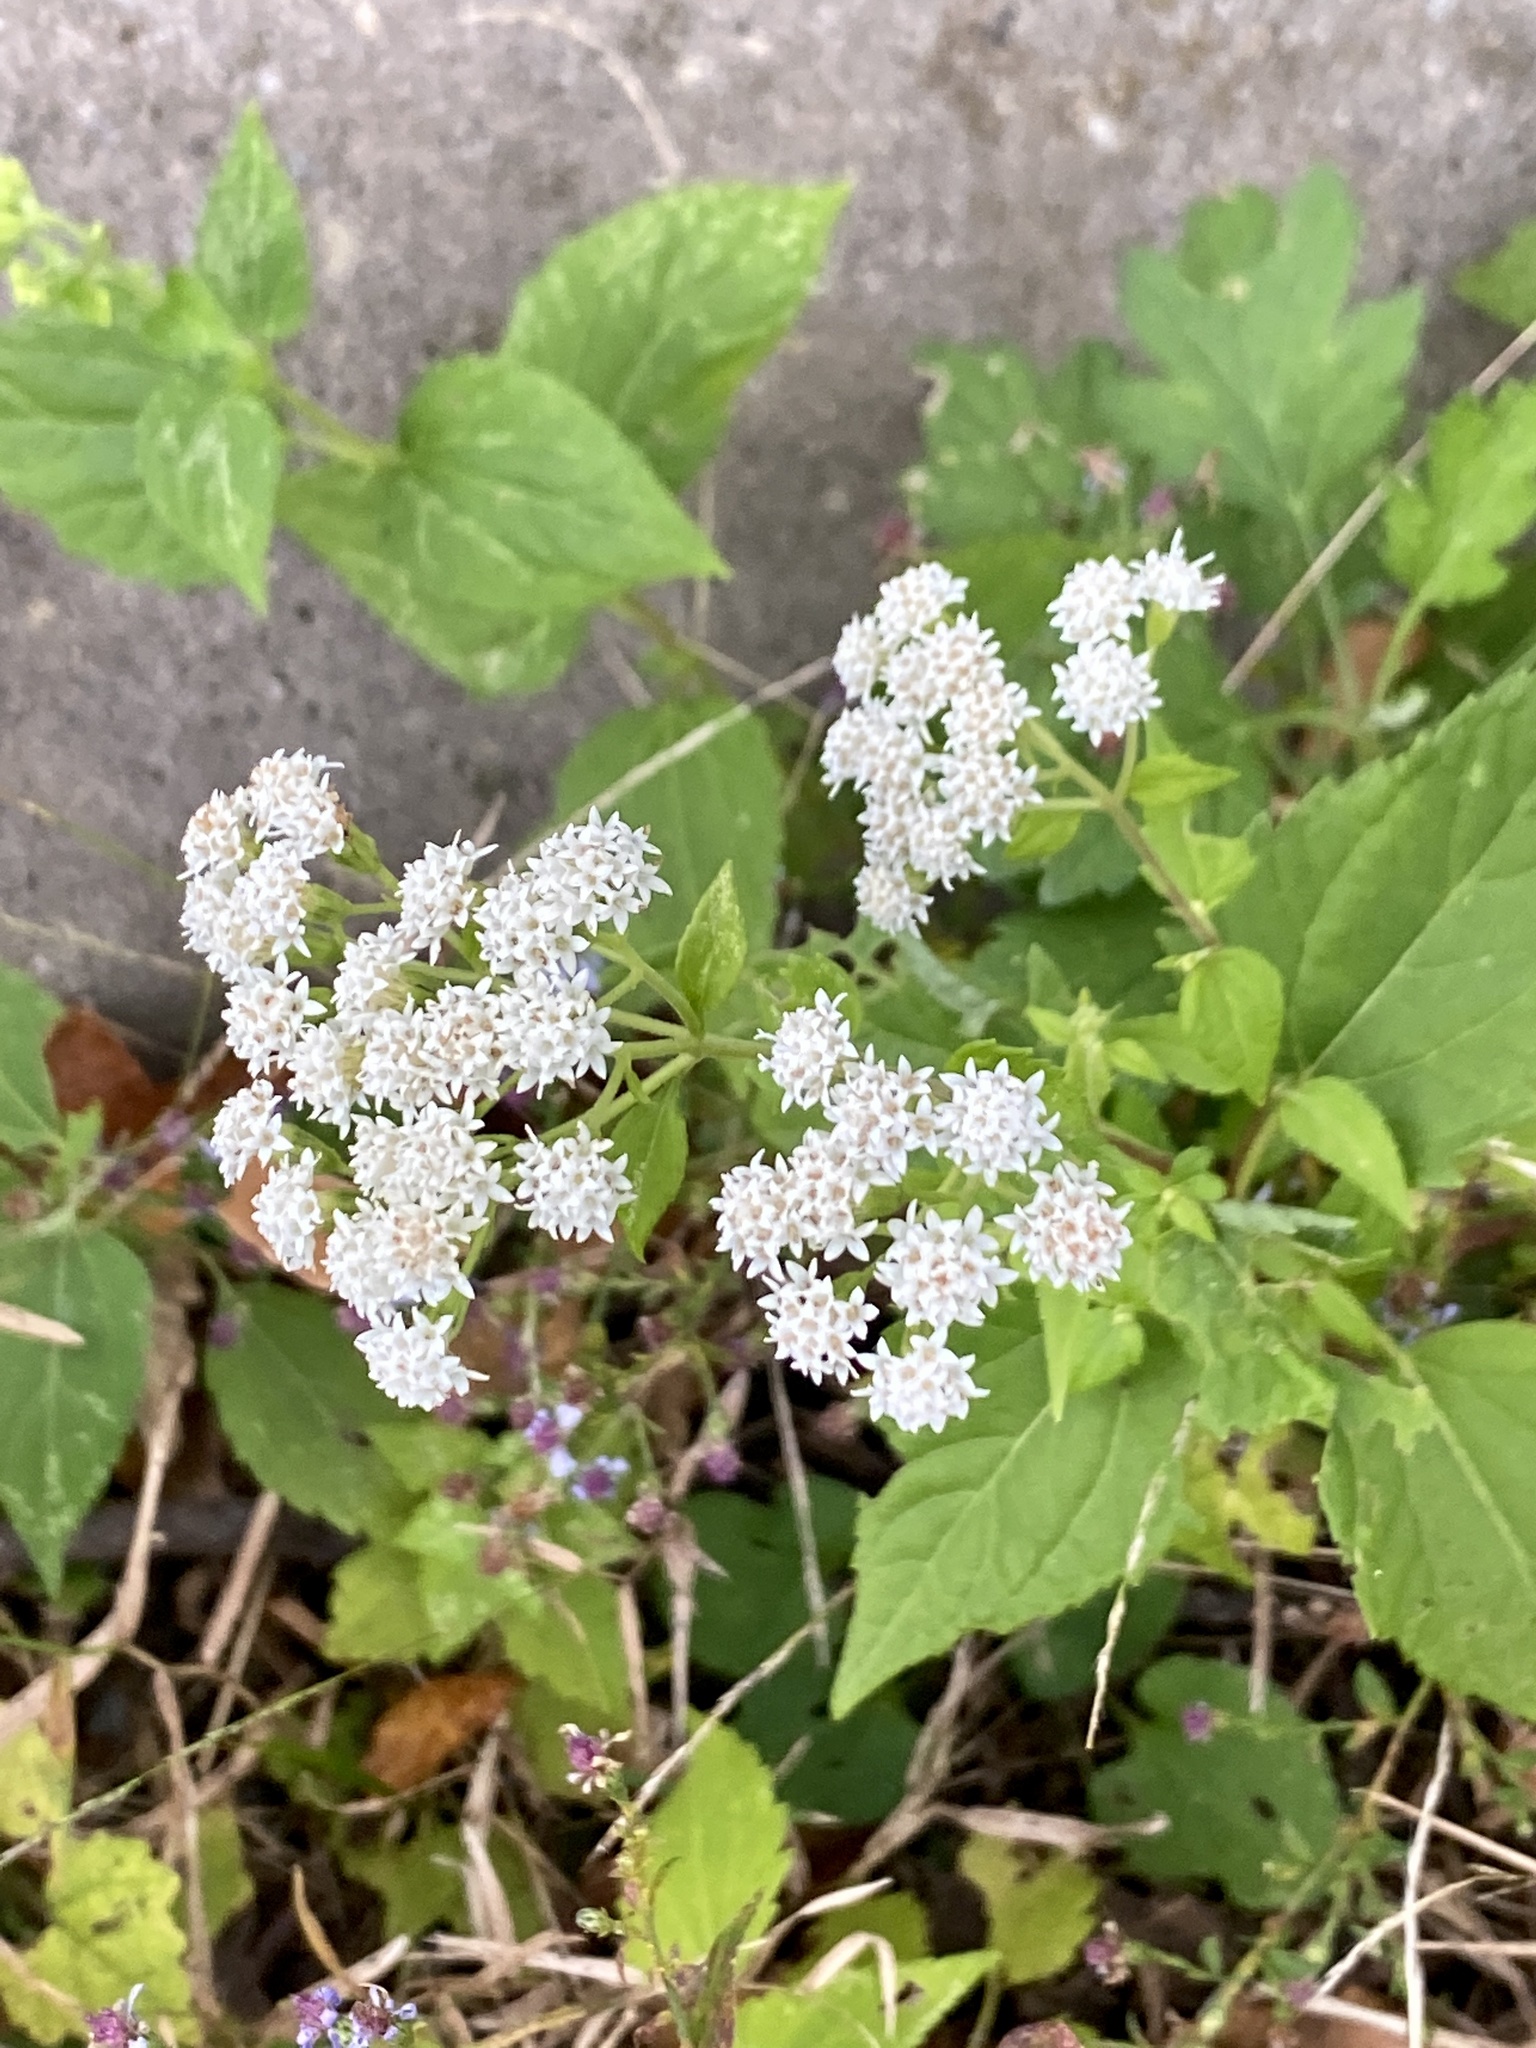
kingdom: Plantae
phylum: Tracheophyta
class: Magnoliopsida
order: Asterales
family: Asteraceae
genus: Ageratina
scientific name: Ageratina altissima
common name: White snakeroot
